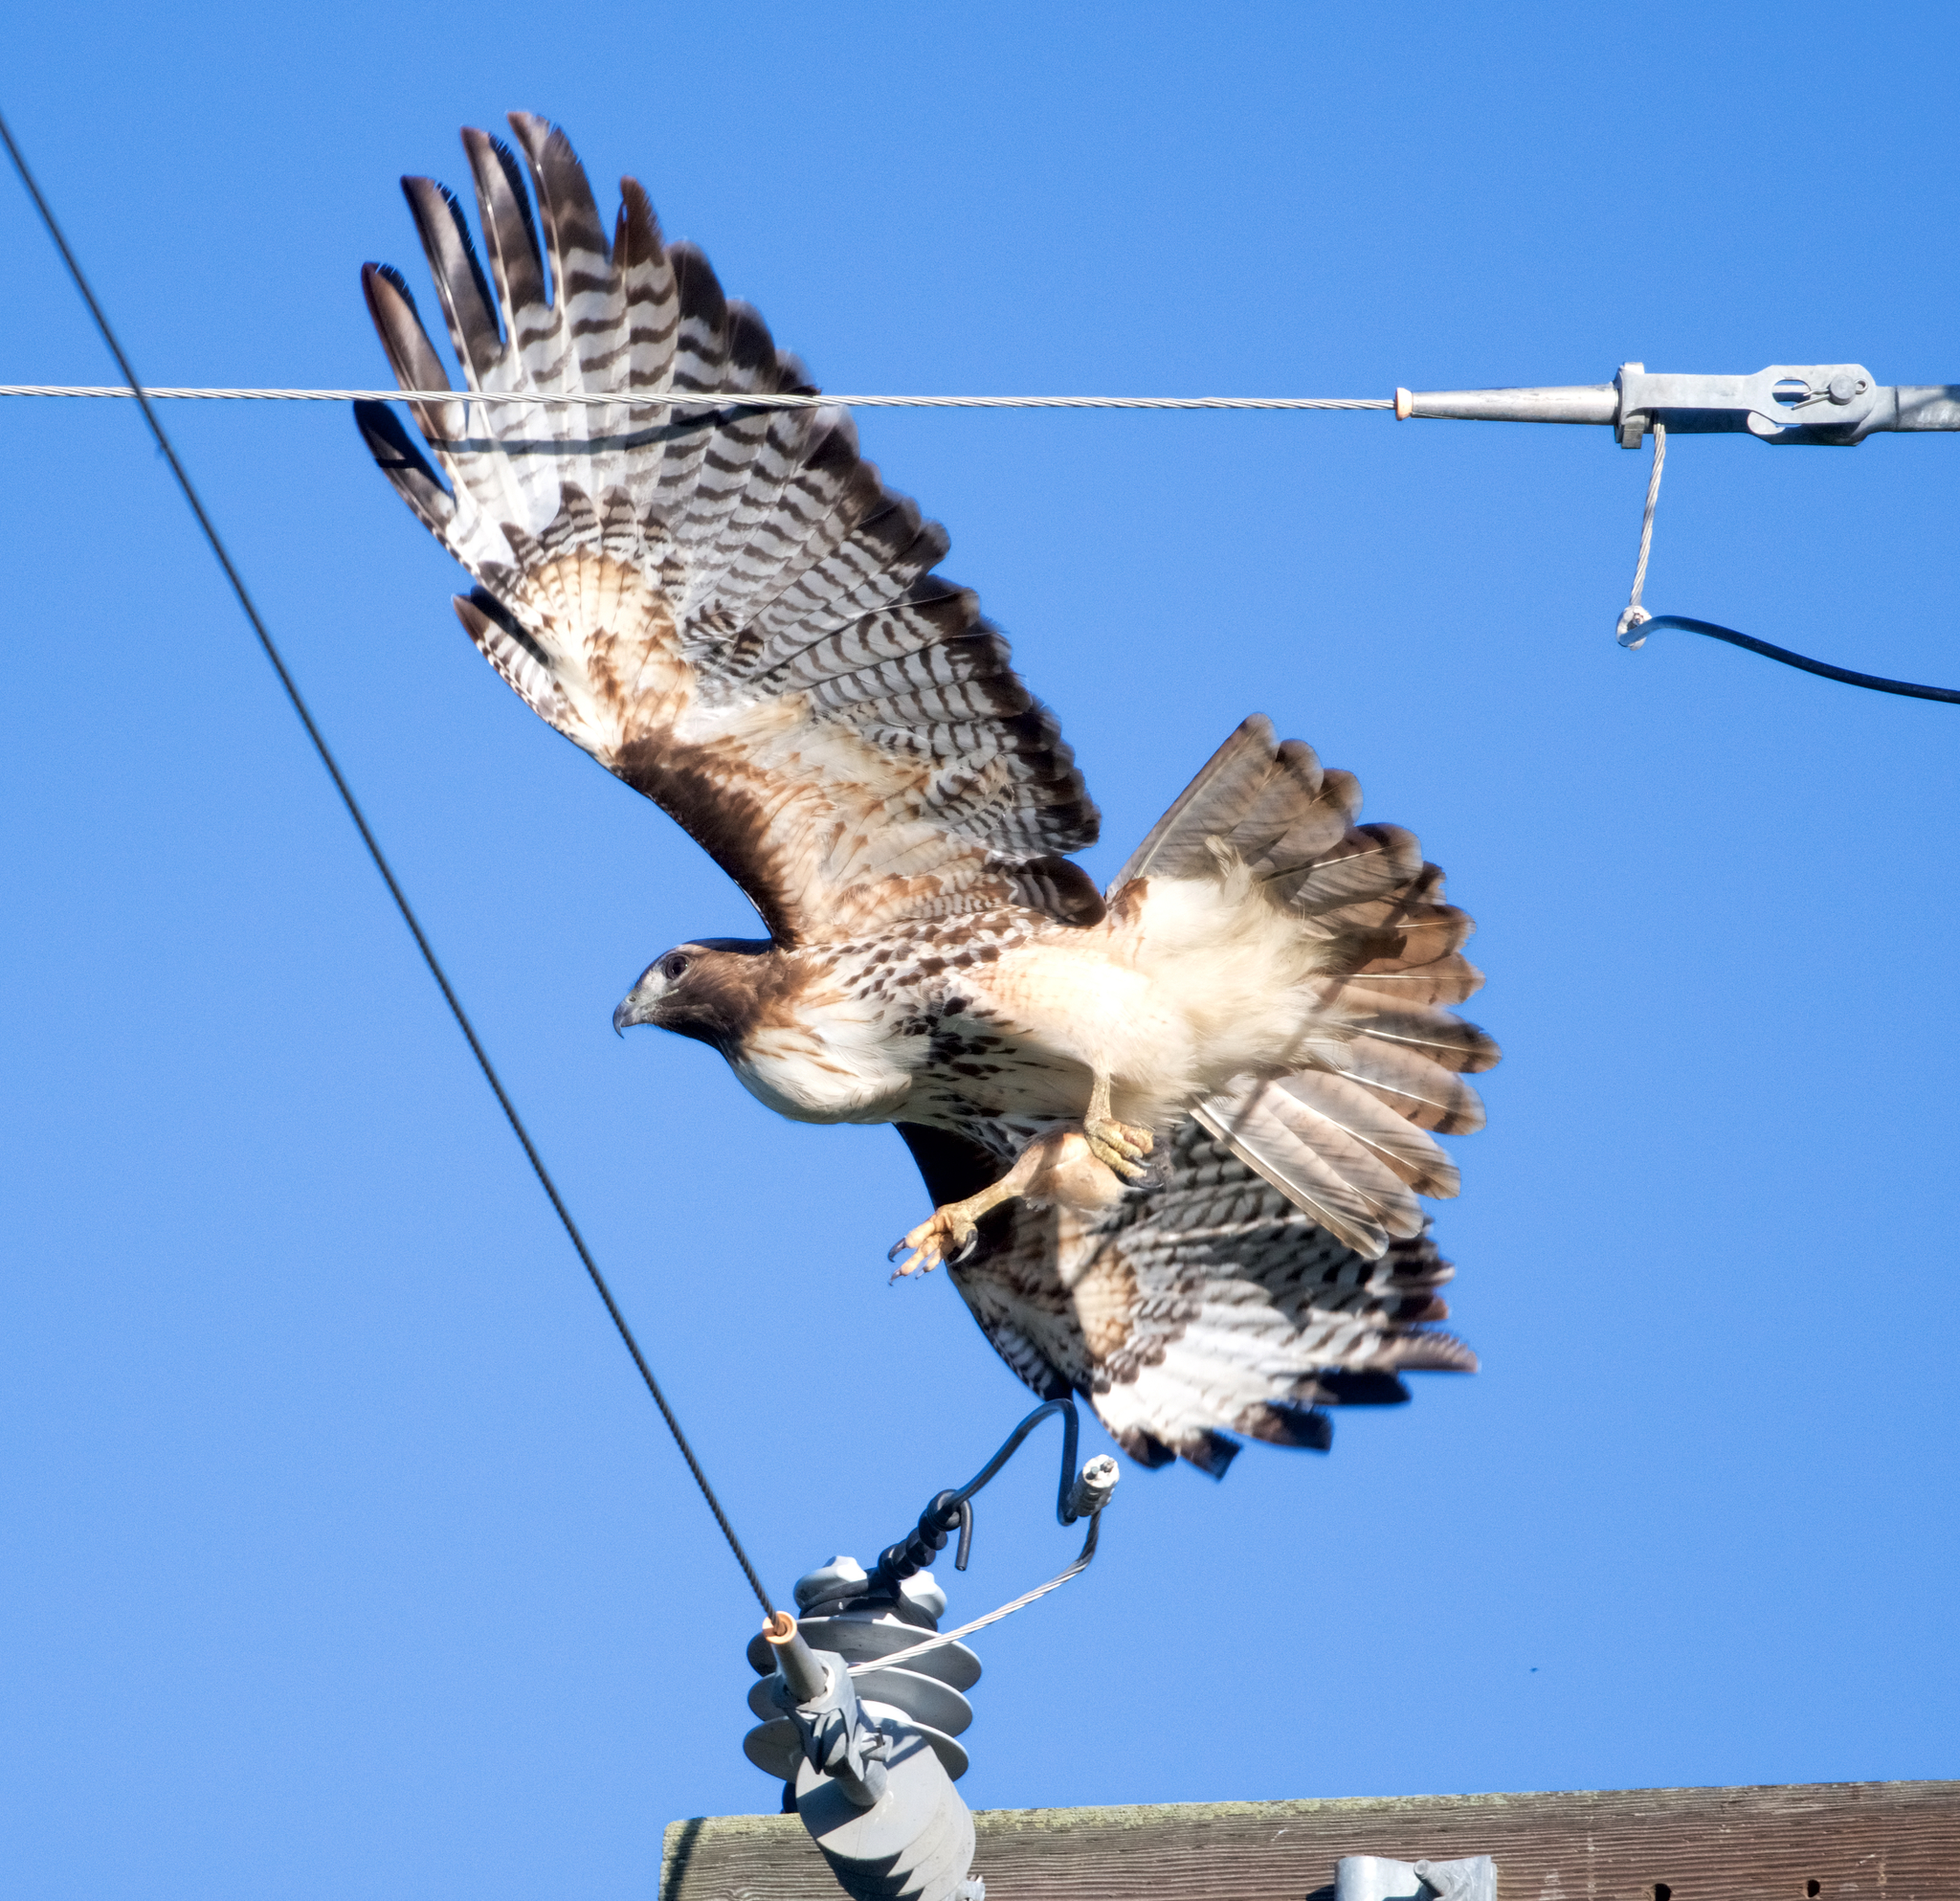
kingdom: Animalia
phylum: Chordata
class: Aves
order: Accipitriformes
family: Accipitridae
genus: Buteo
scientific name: Buteo jamaicensis
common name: Red-tailed hawk
